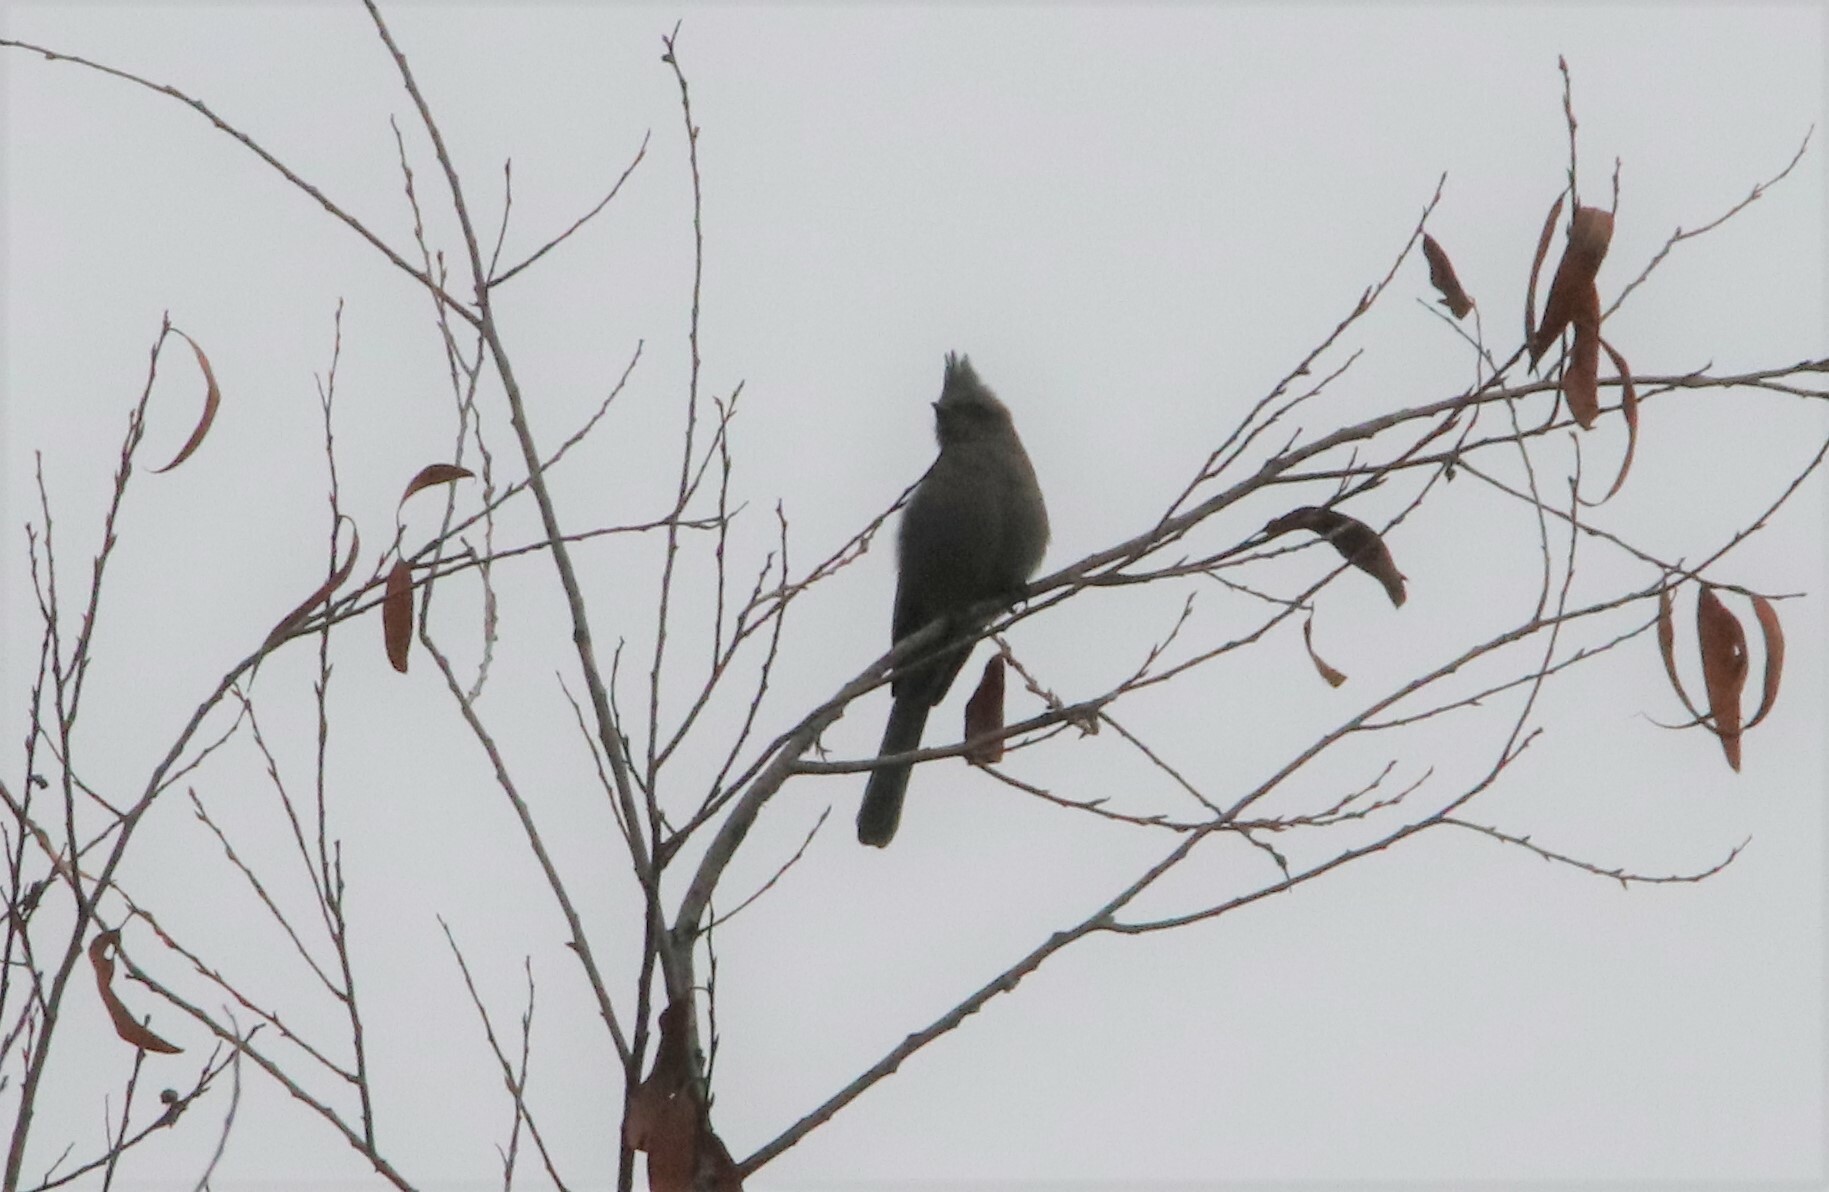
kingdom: Animalia
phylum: Chordata
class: Aves
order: Passeriformes
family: Ptilogonatidae
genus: Phainopepla
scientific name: Phainopepla nitens
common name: Phainopepla
